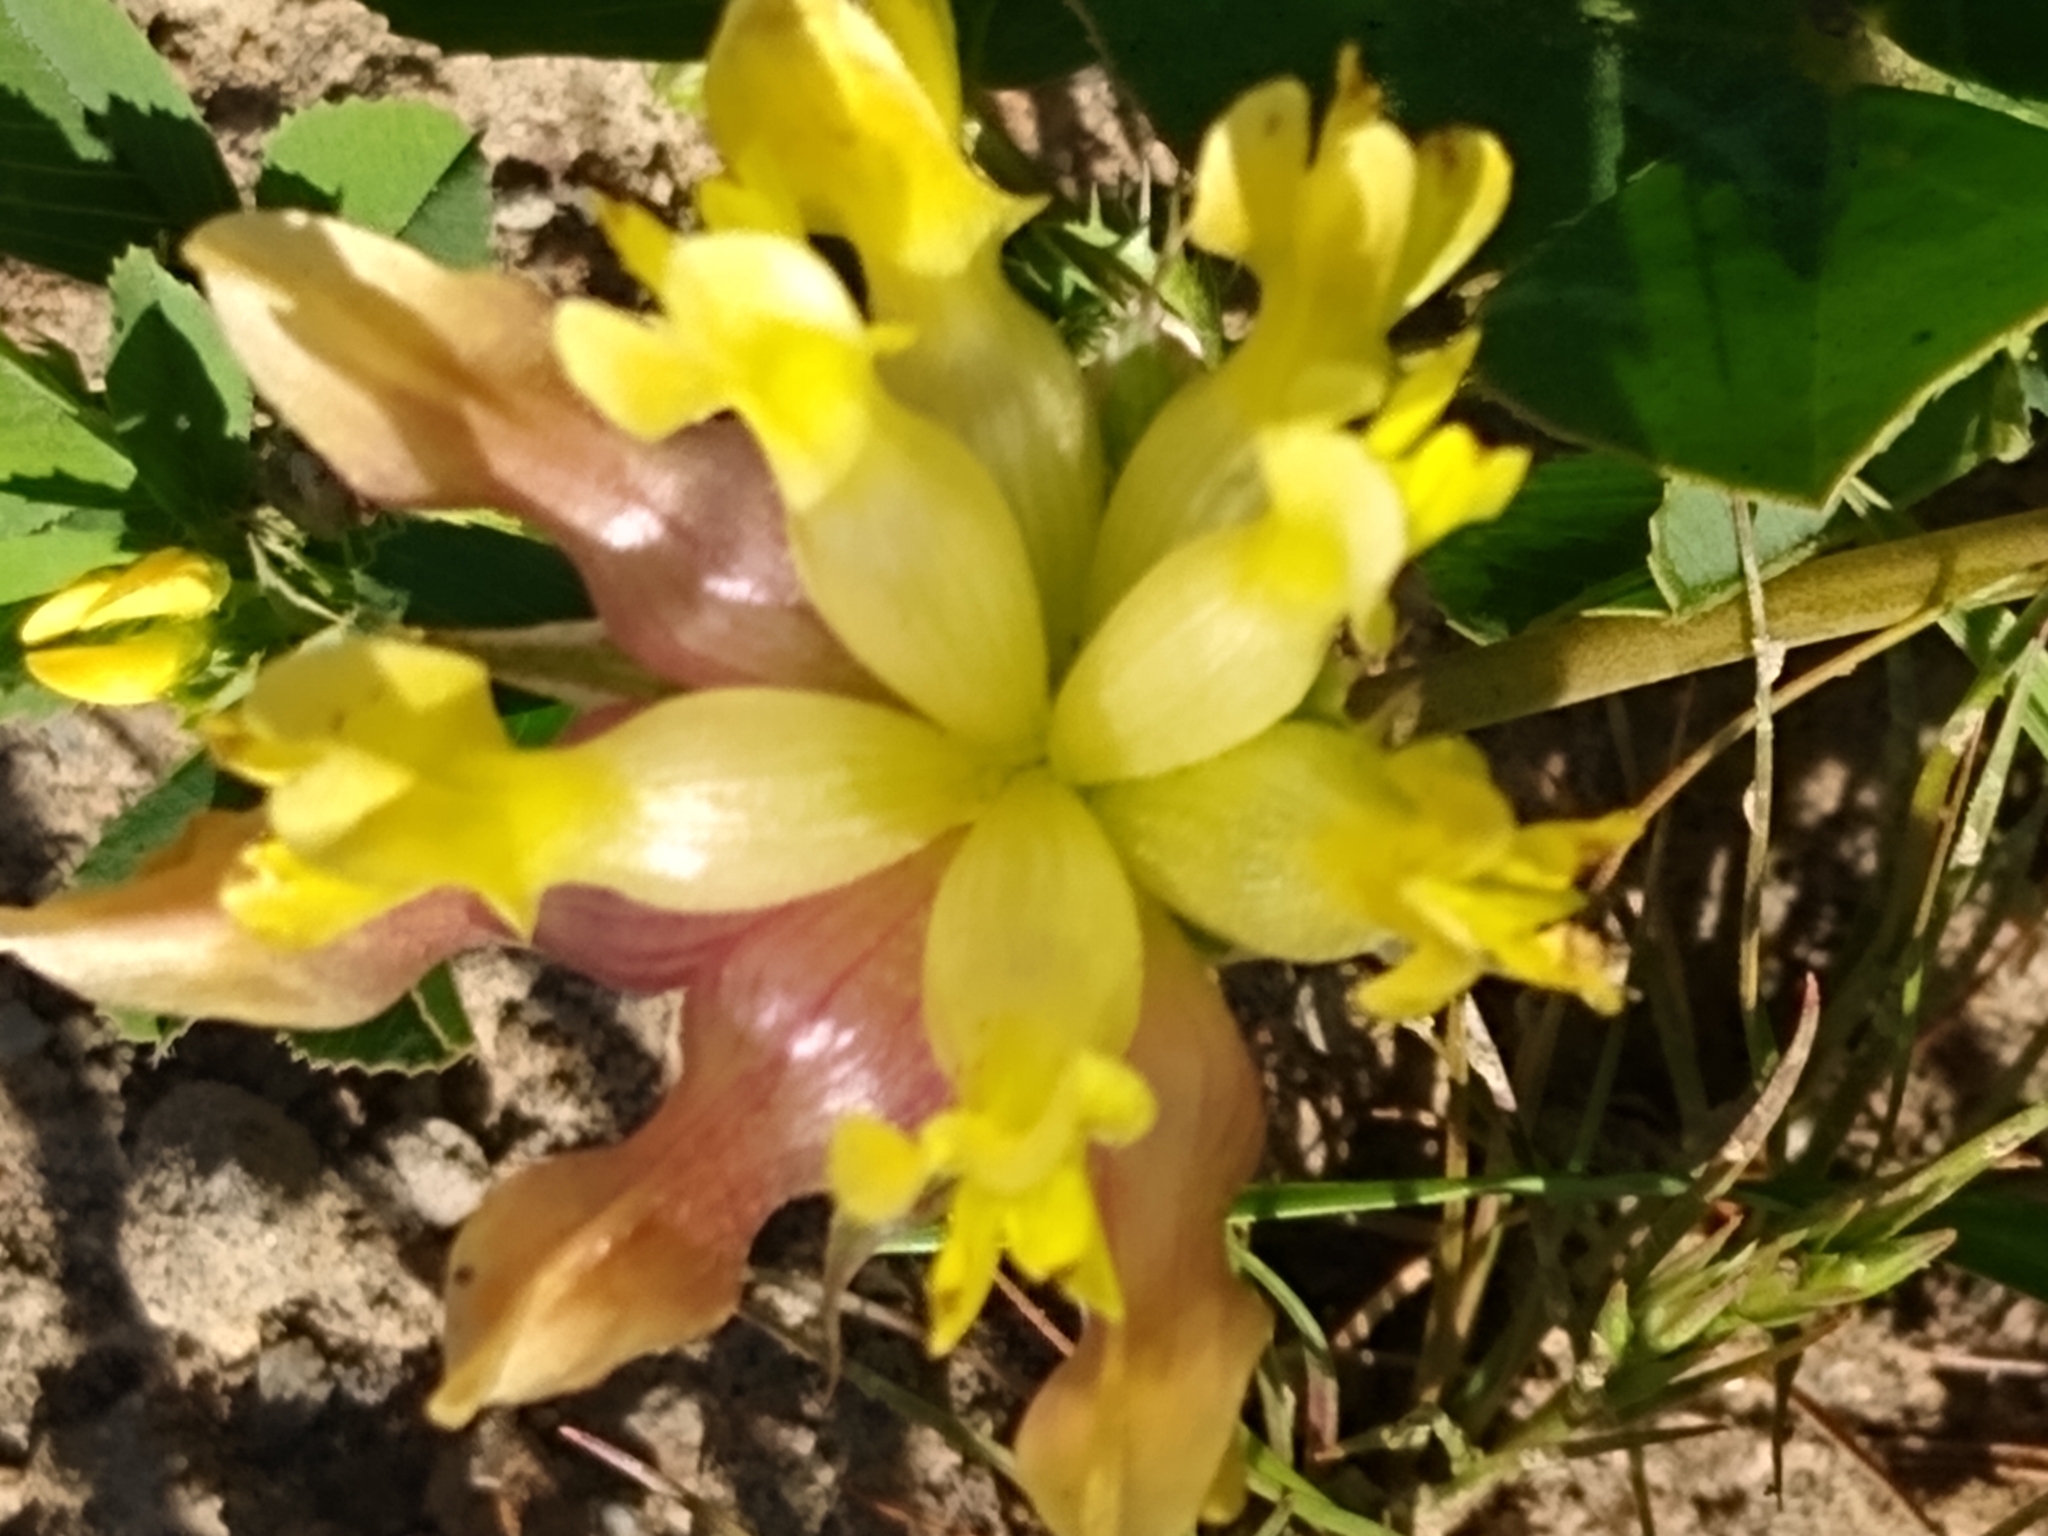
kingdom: Plantae
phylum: Tracheophyta
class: Magnoliopsida
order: Fabales
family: Fabaceae
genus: Trifolium
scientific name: Trifolium fucatum
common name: Puff clover
